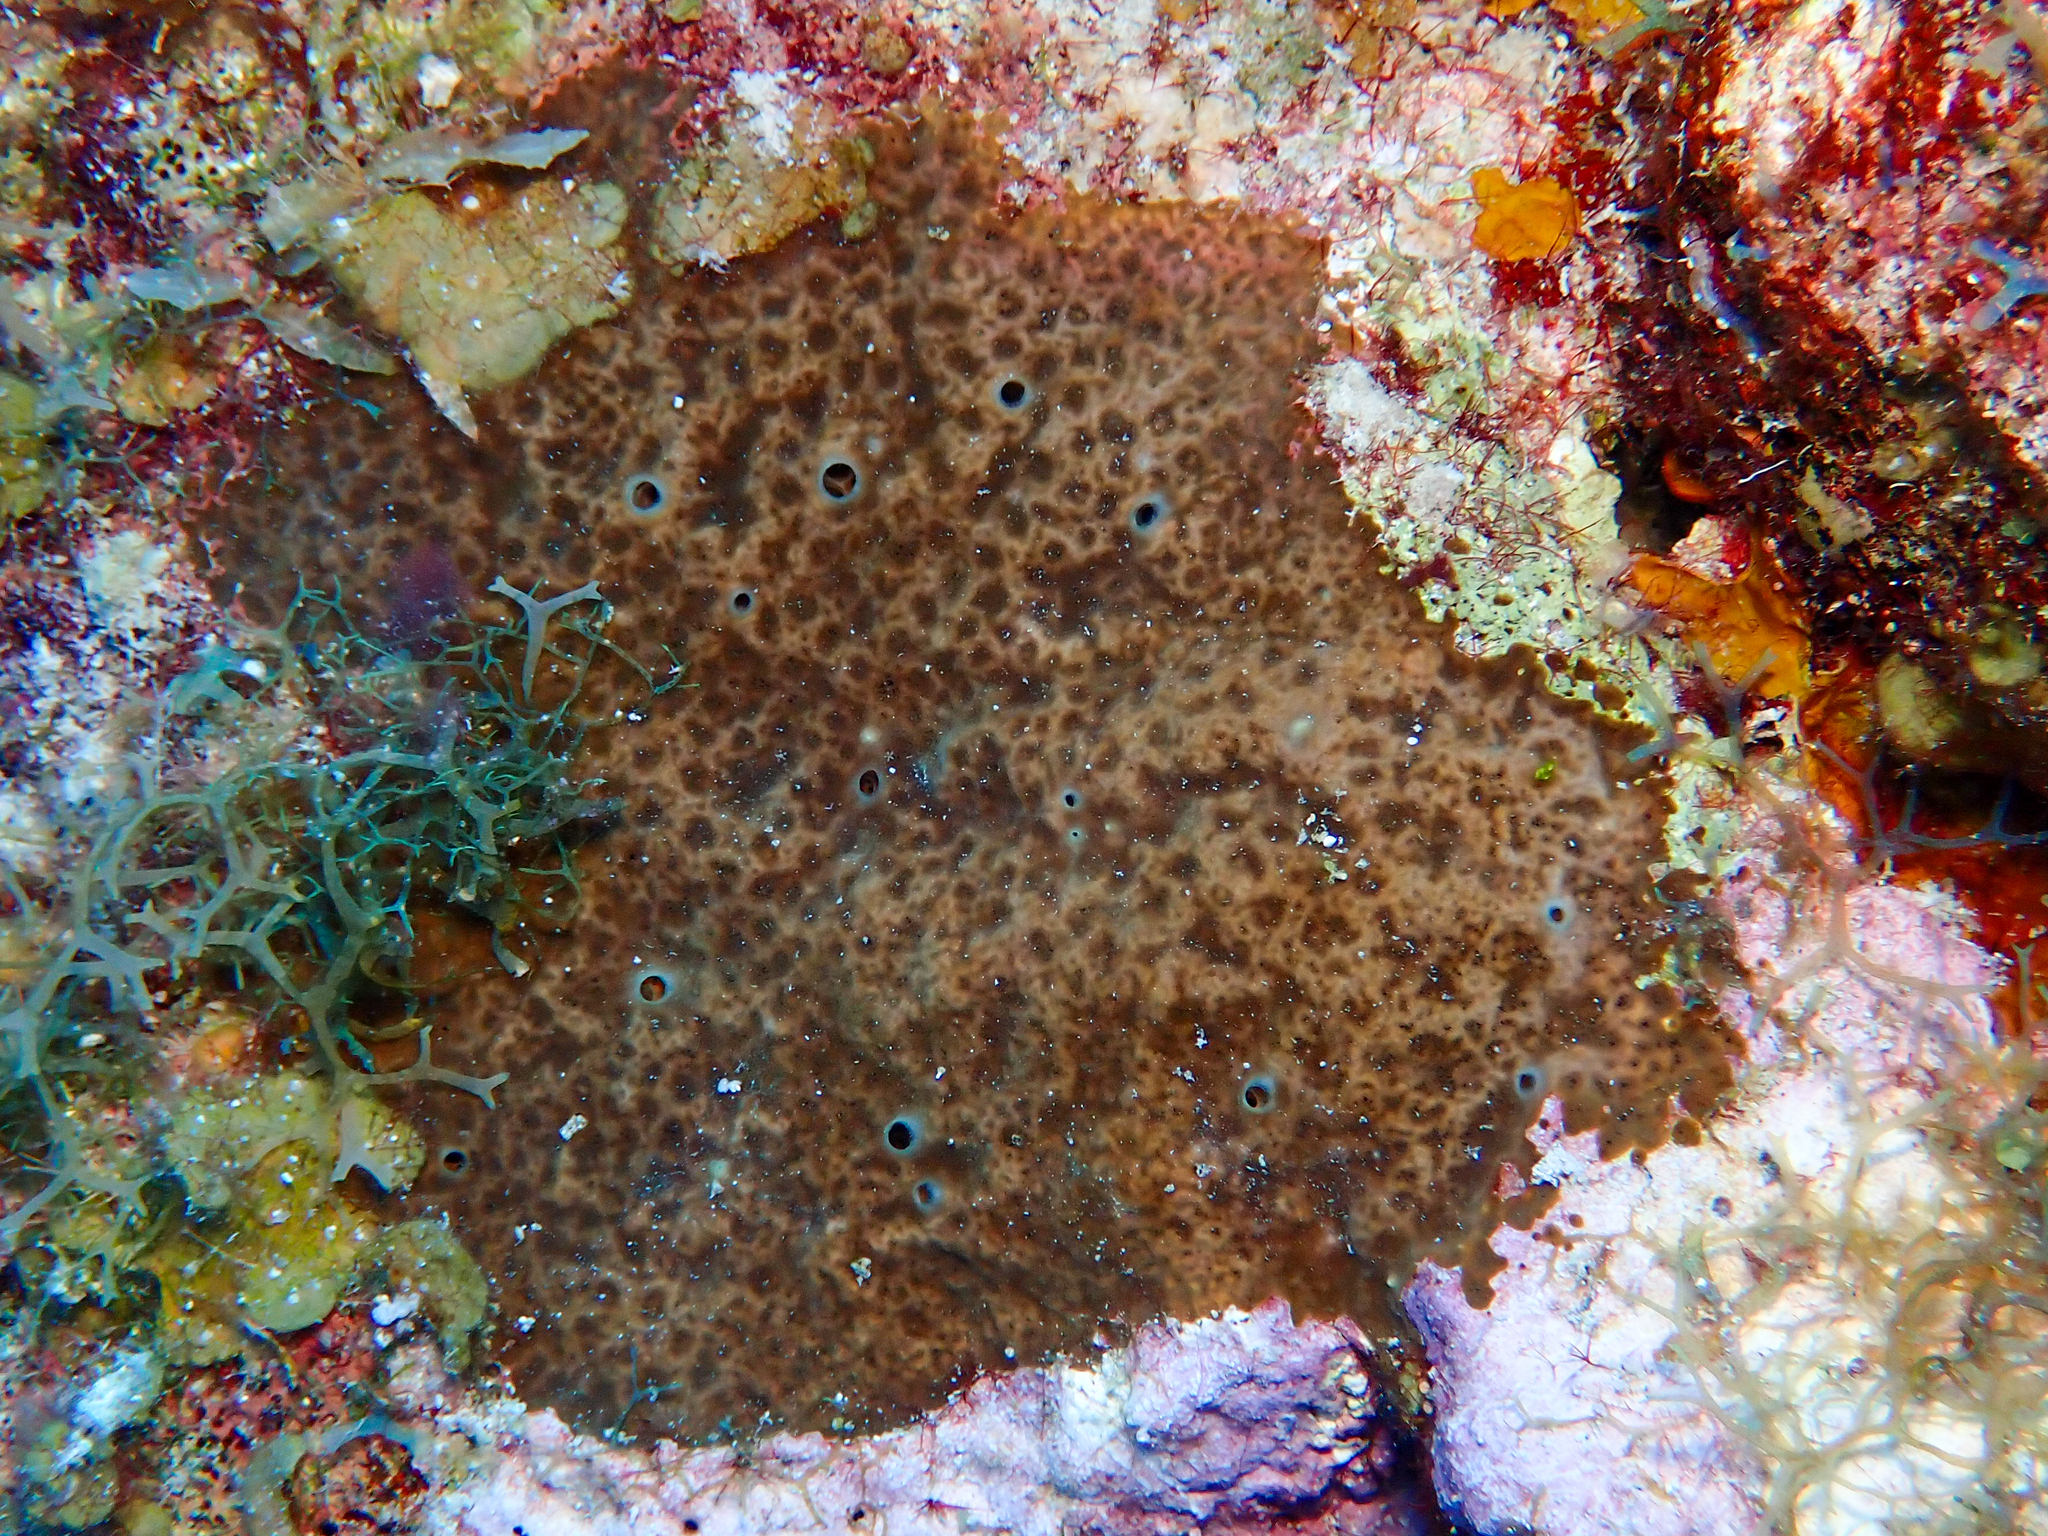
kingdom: Animalia
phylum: Porifera
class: Demospongiae
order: Clionaida
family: Clionaidae
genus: Cliona
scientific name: Cliona caribbaea
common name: Green boring sponge
